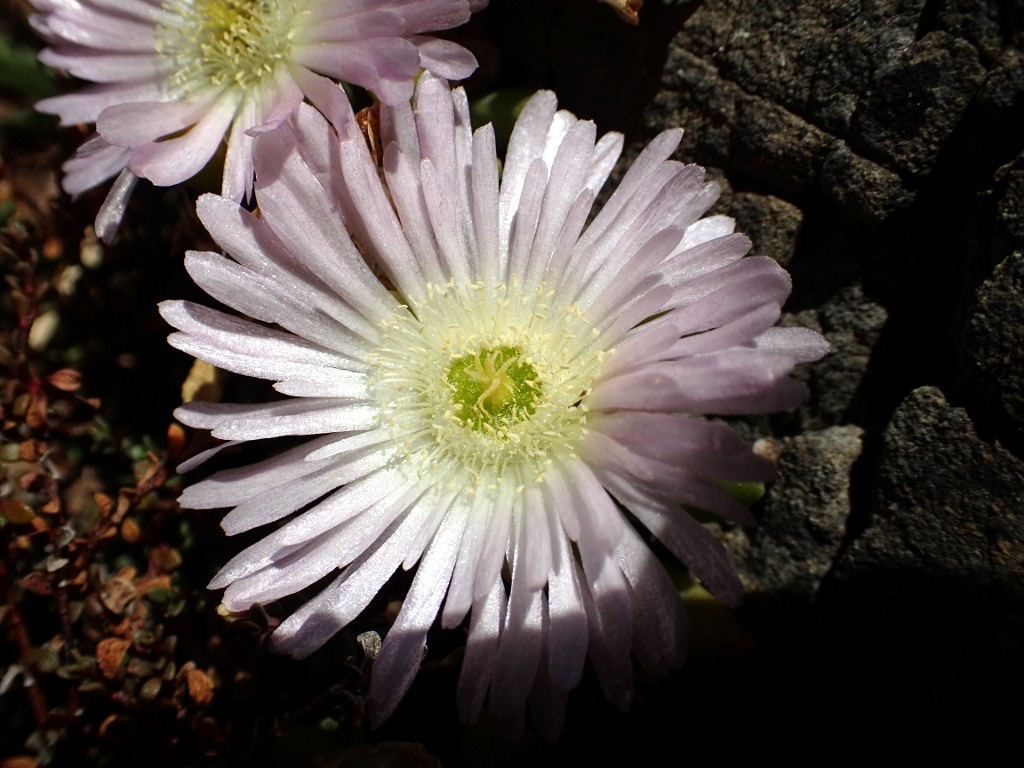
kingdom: Plantae
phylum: Tracheophyta
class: Magnoliopsida
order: Caryophyllales
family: Aizoaceae
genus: Disphyma
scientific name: Disphyma australe
